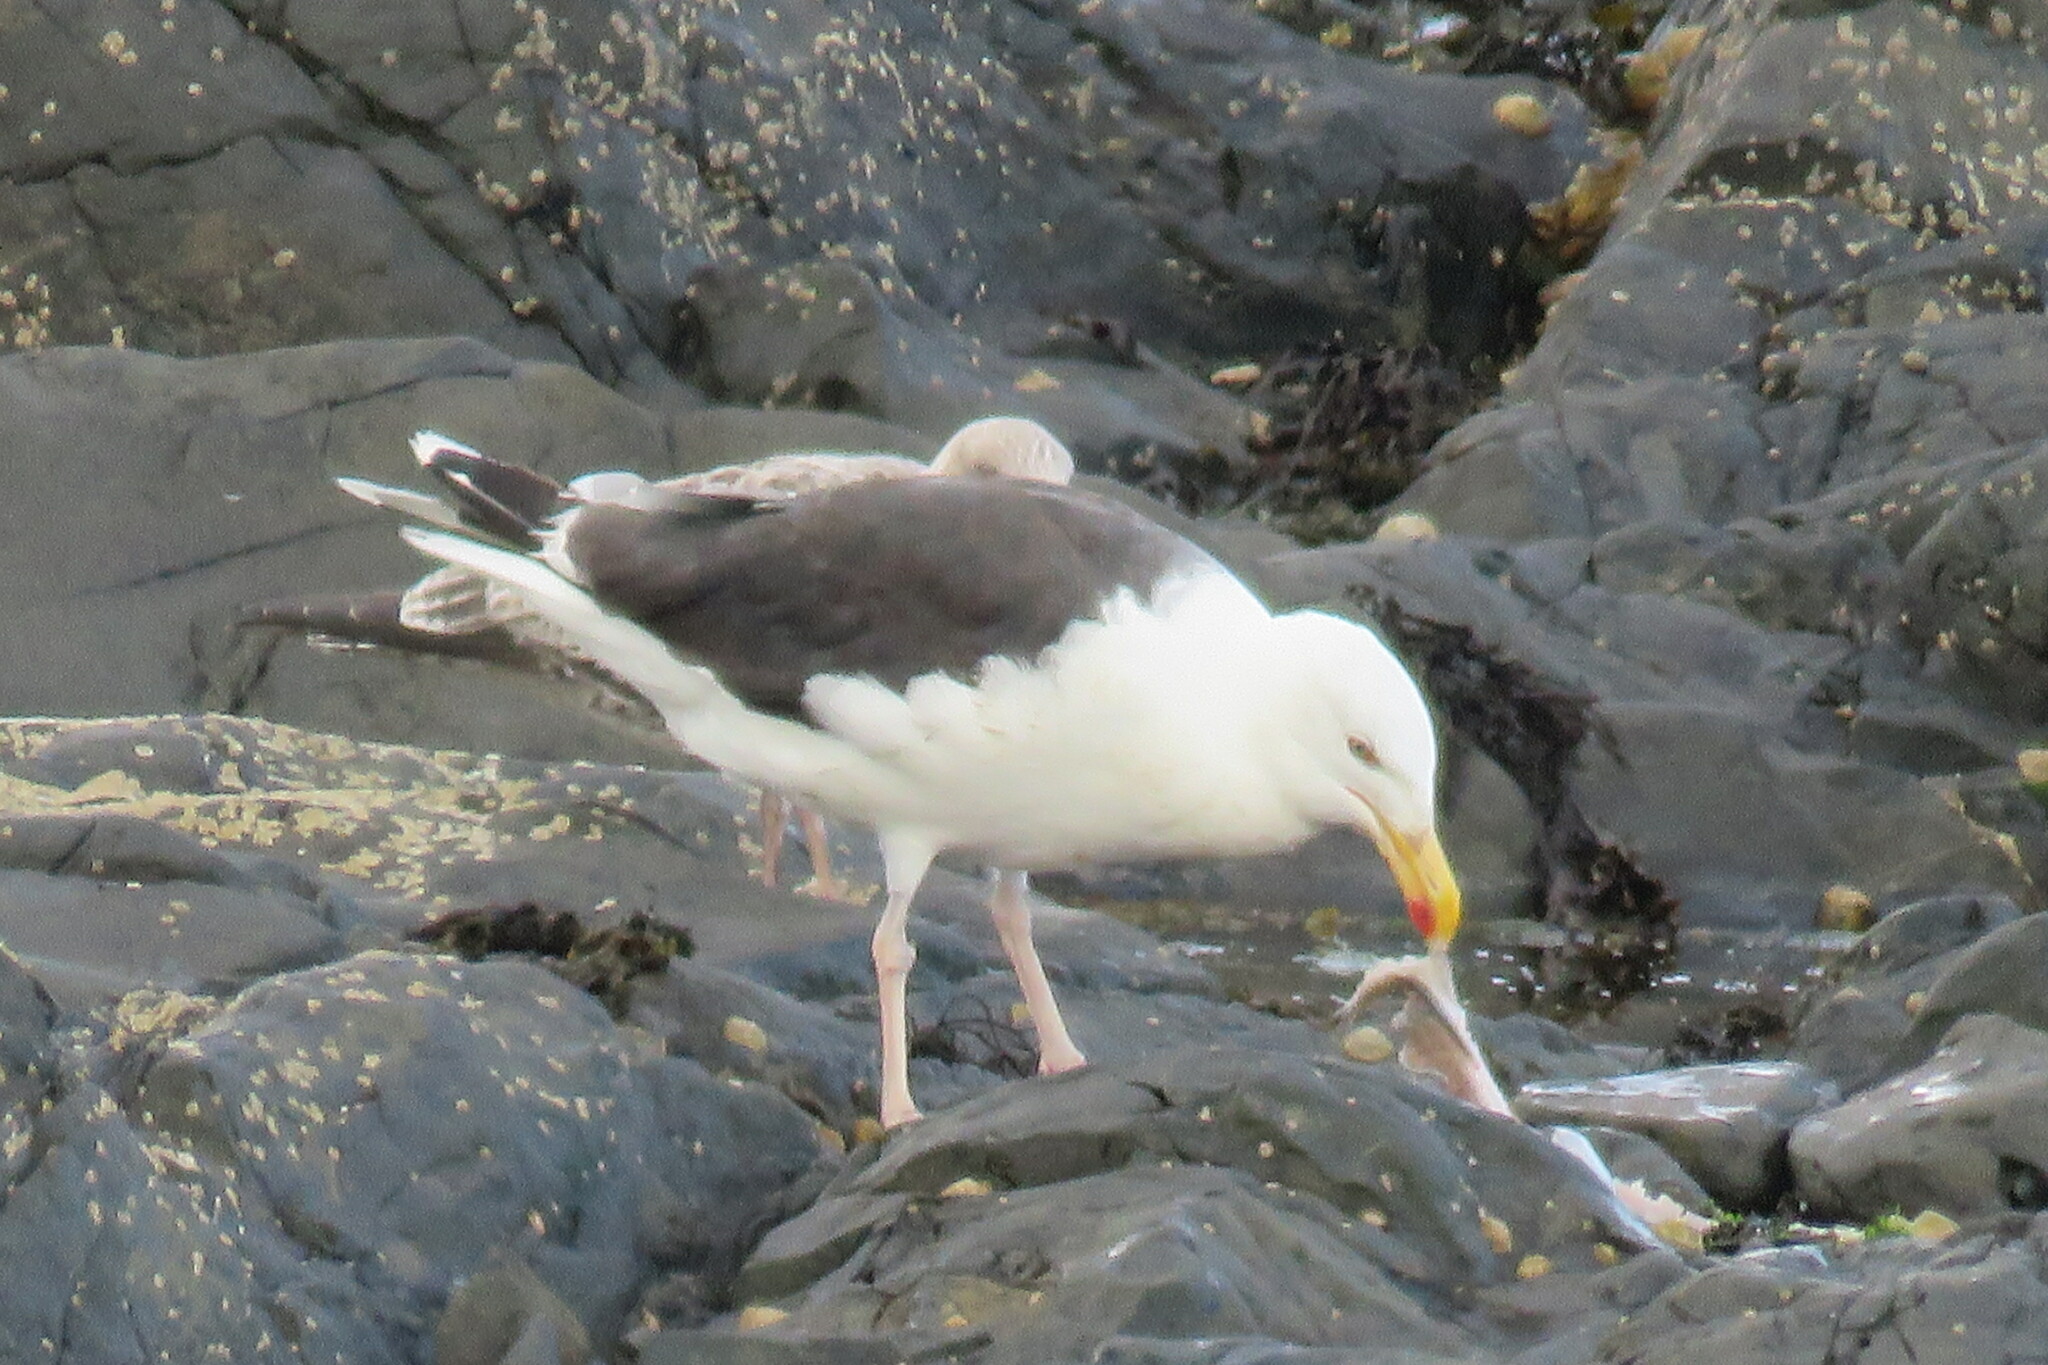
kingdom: Animalia
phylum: Chordata
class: Aves
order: Charadriiformes
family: Laridae
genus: Larus
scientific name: Larus marinus
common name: Great black-backed gull
